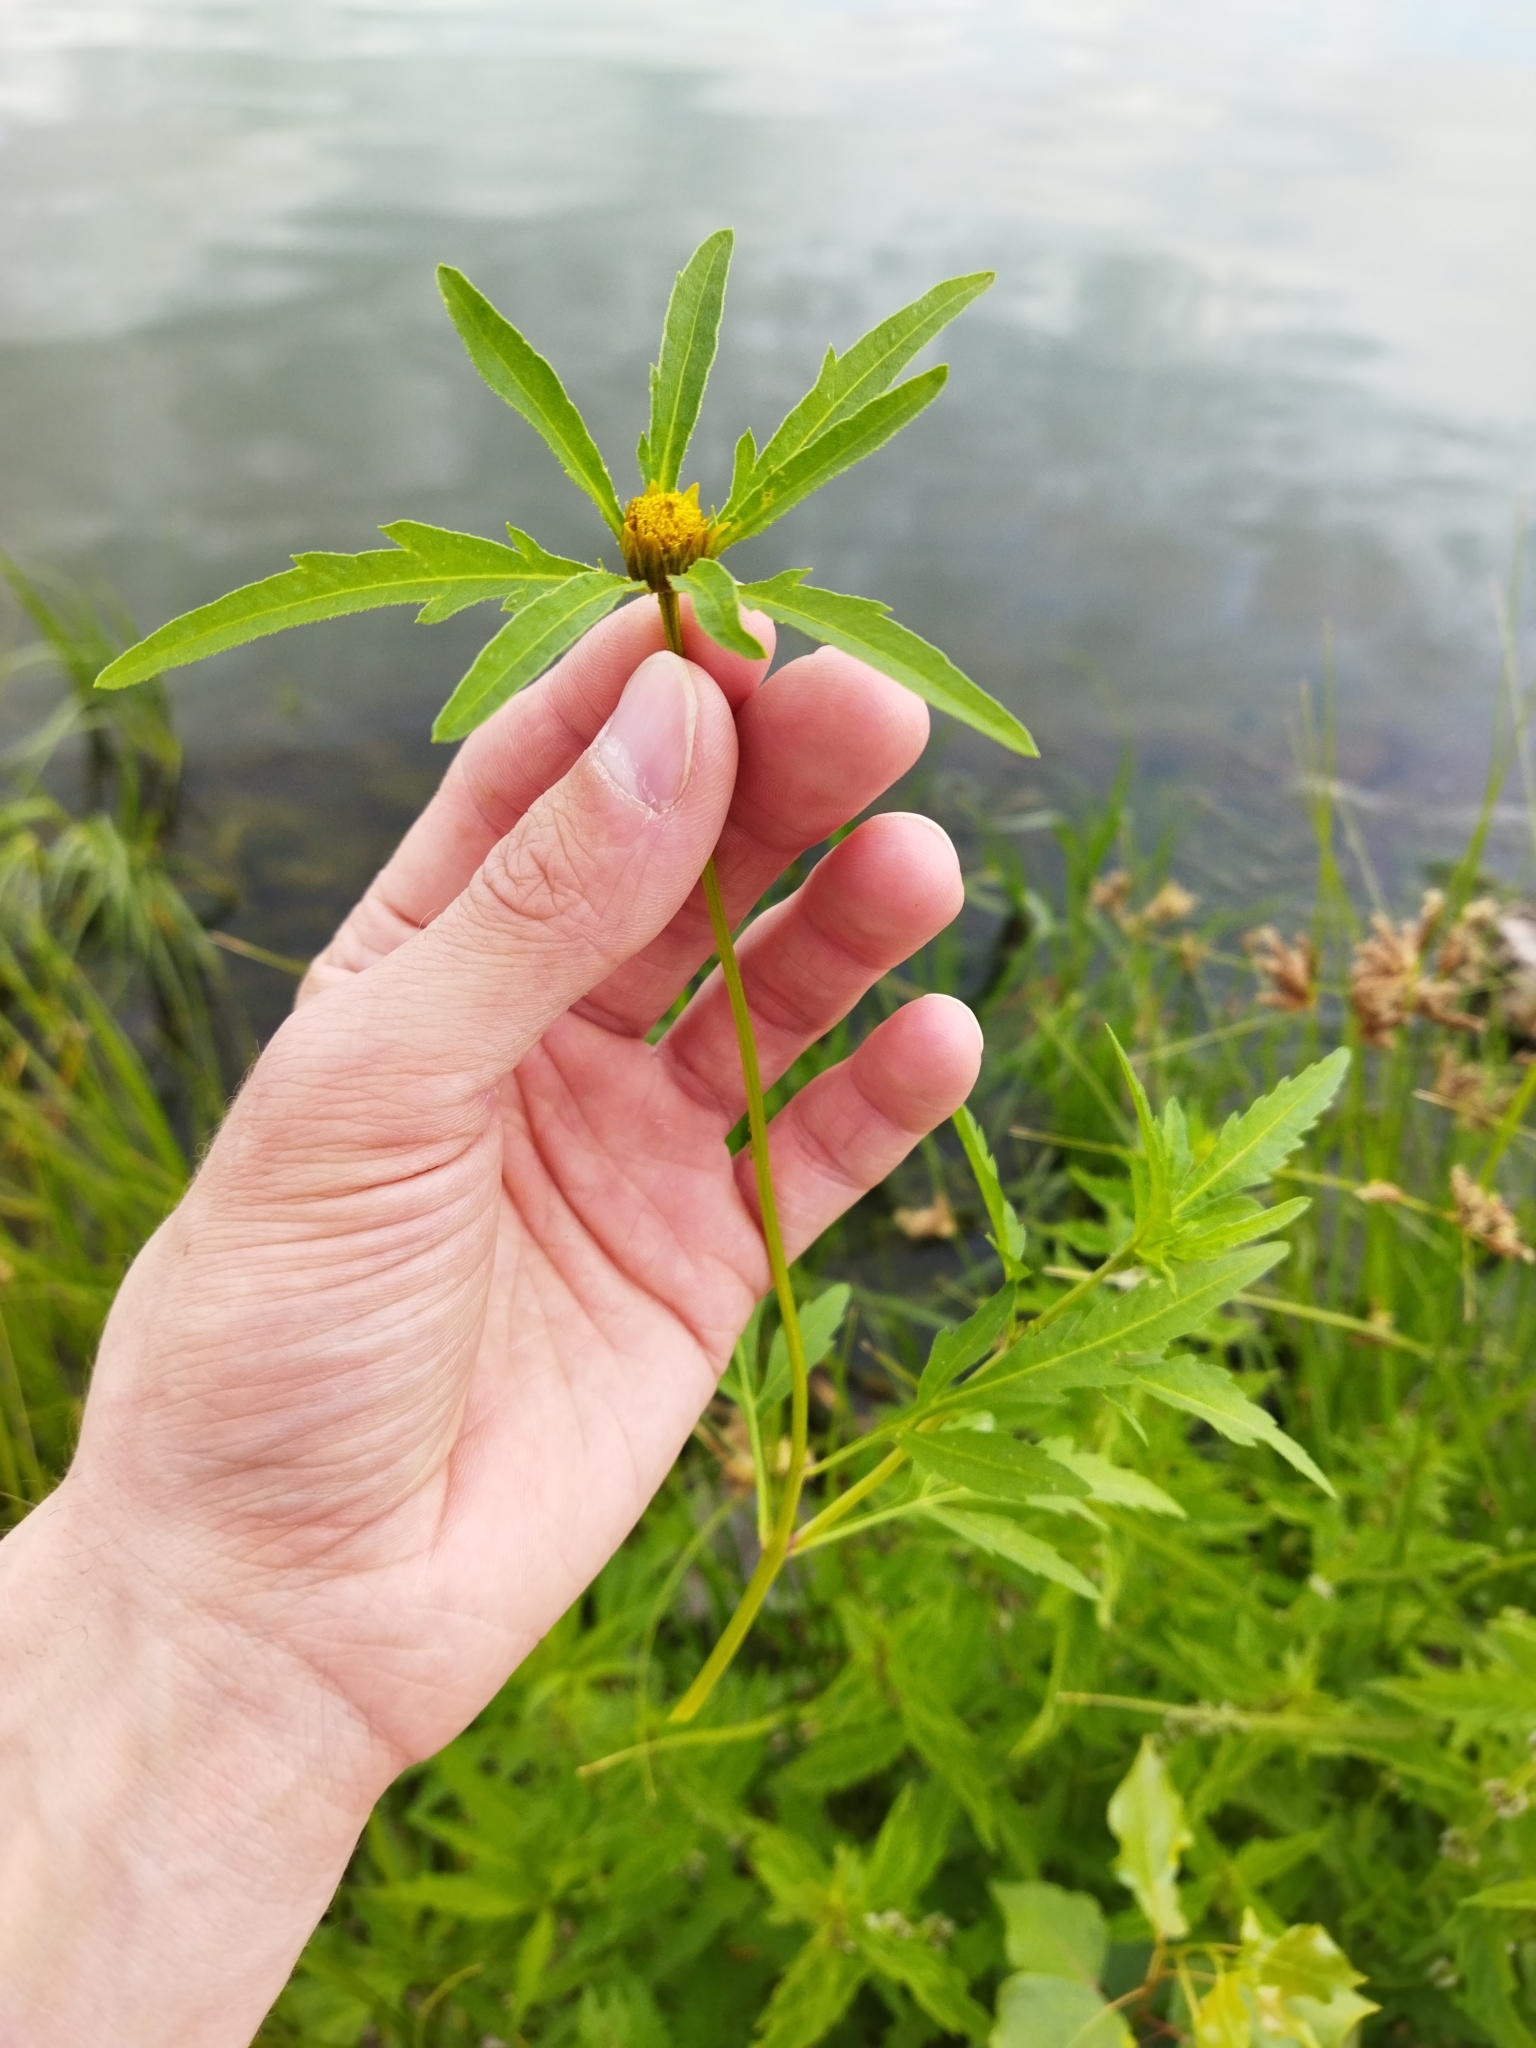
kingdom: Plantae
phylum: Tracheophyta
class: Magnoliopsida
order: Asterales
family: Asteraceae
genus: Bidens
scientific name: Bidens tripartita
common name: Trifid bur-marigold
